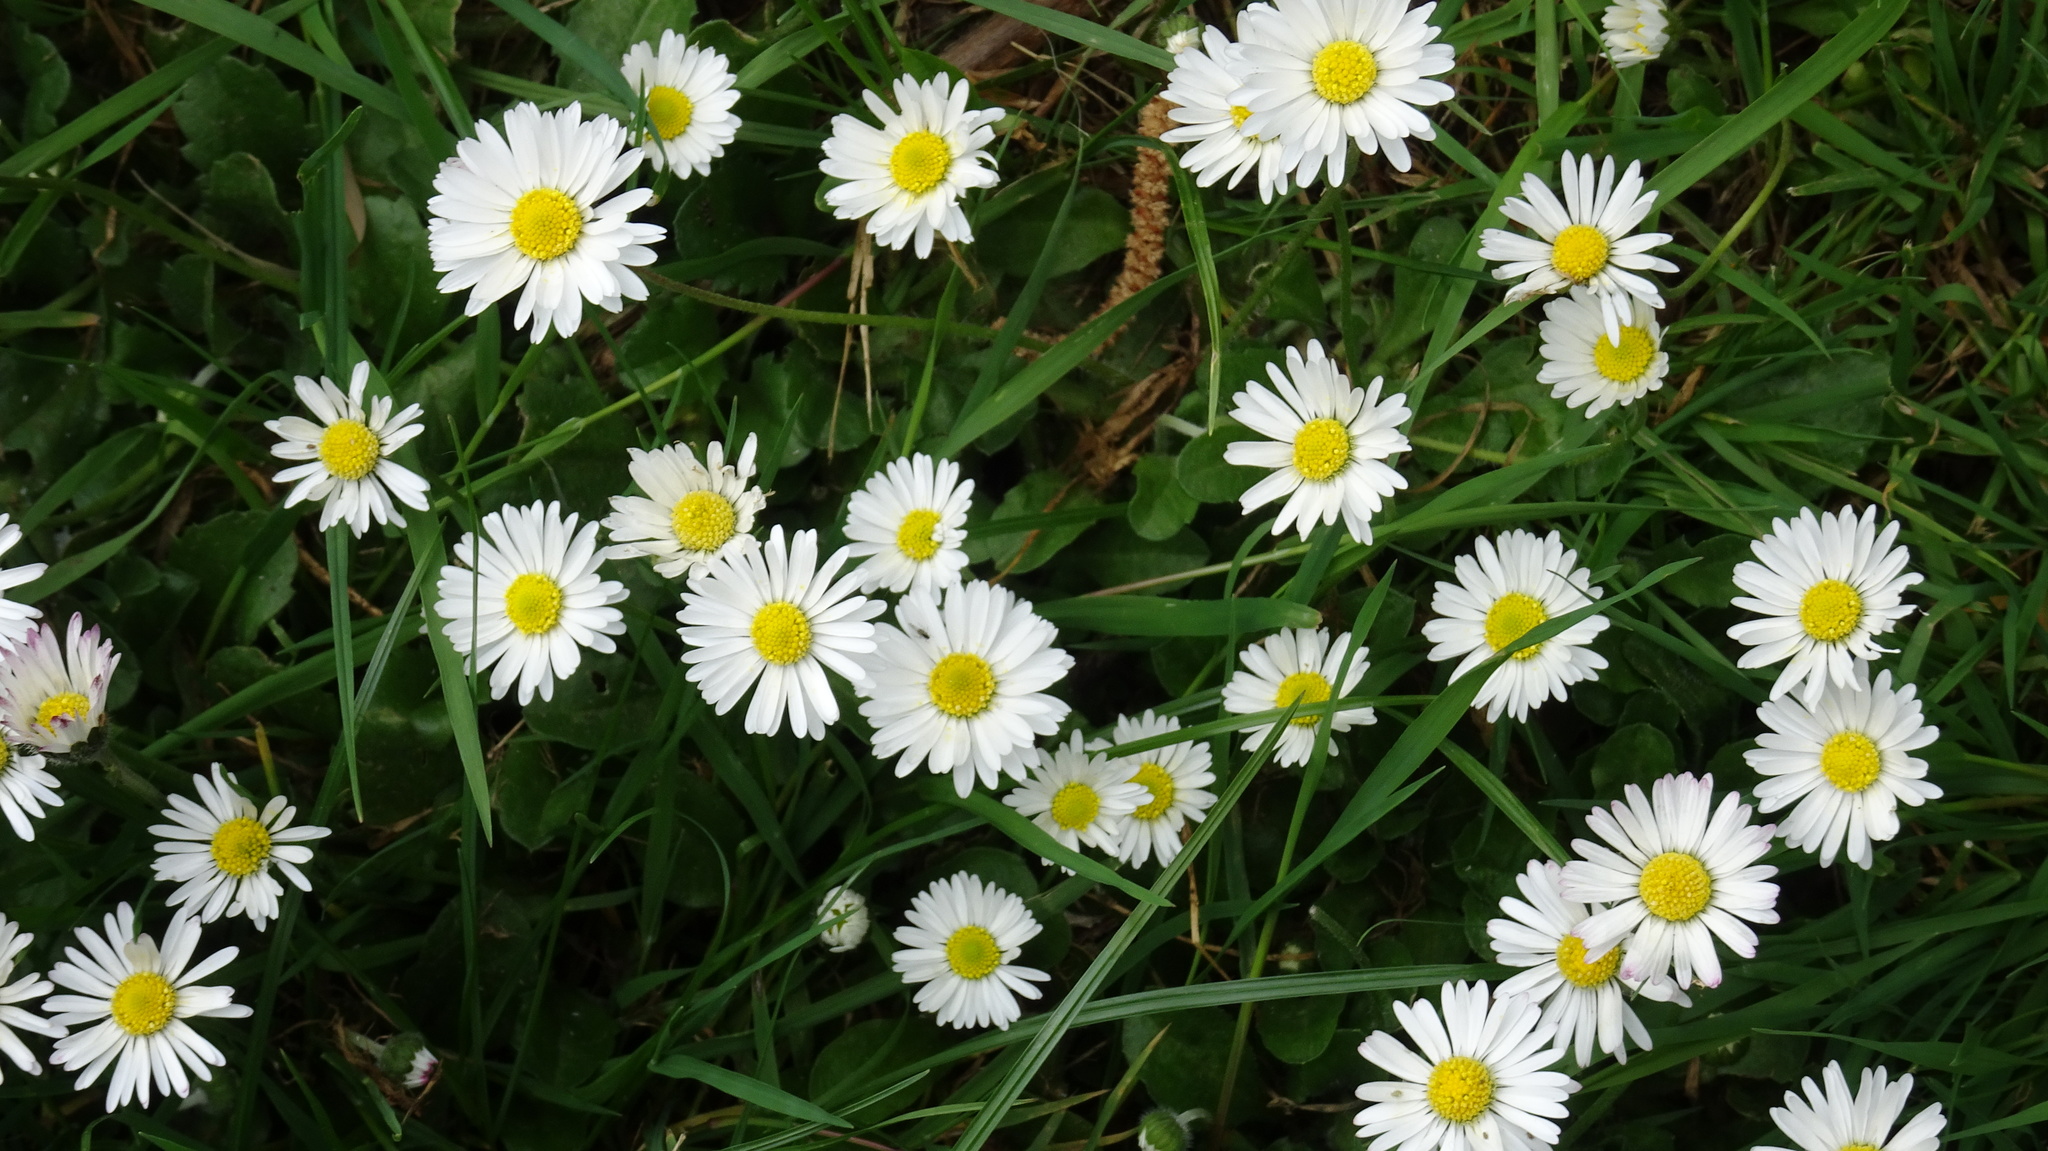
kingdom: Plantae
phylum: Tracheophyta
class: Magnoliopsida
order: Asterales
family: Asteraceae
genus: Bellis
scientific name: Bellis perennis
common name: Lawndaisy
